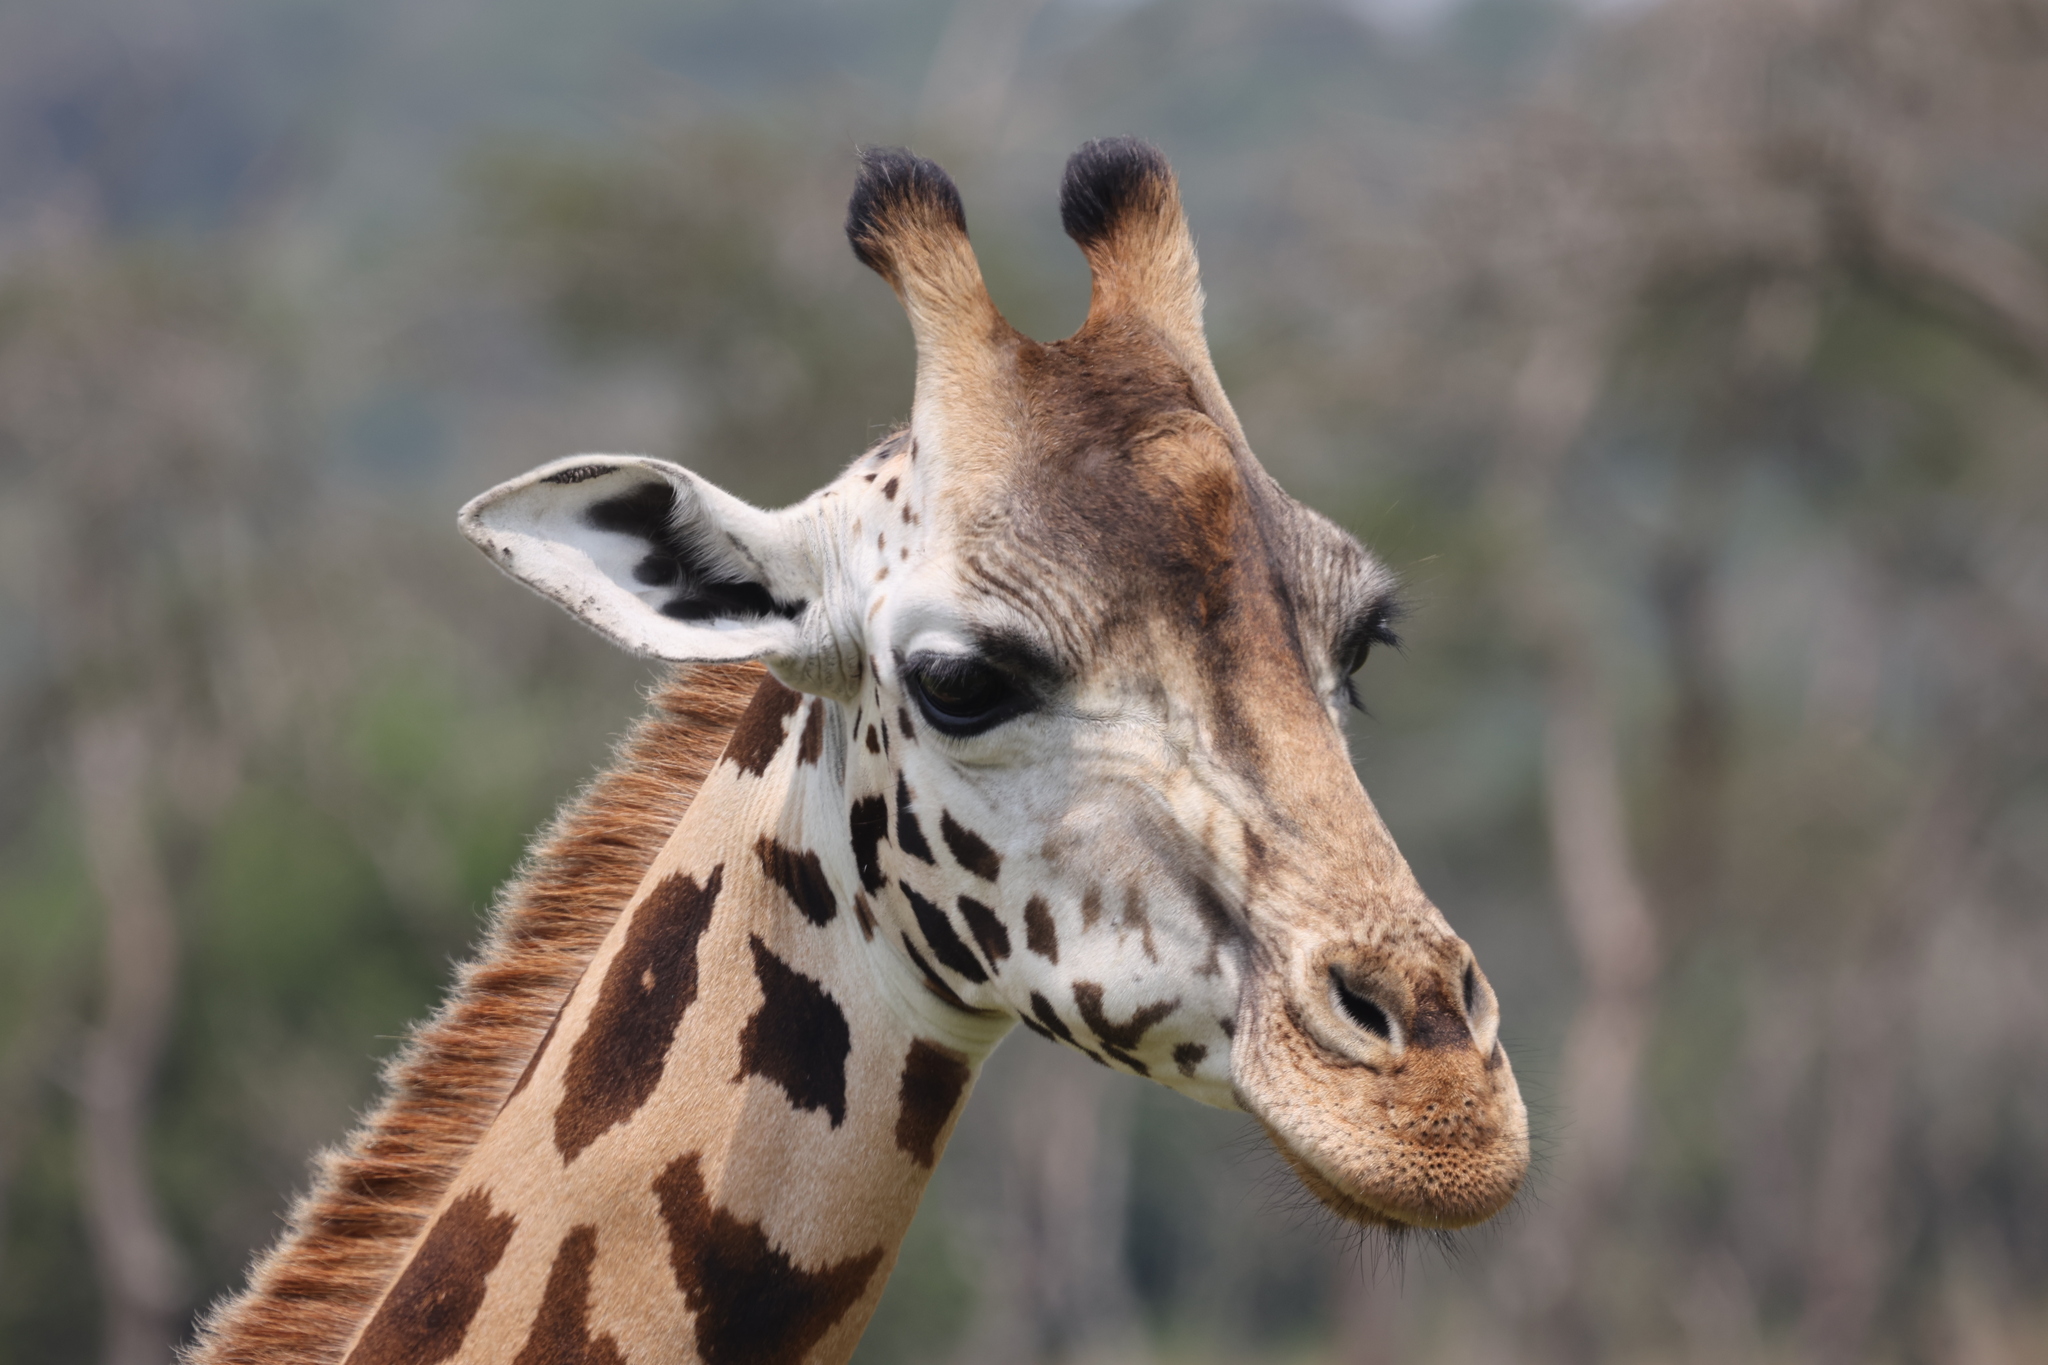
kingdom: Animalia
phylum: Chordata
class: Mammalia
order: Artiodactyla
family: Giraffidae
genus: Giraffa
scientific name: Giraffa camelopardalis
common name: Giraffe
